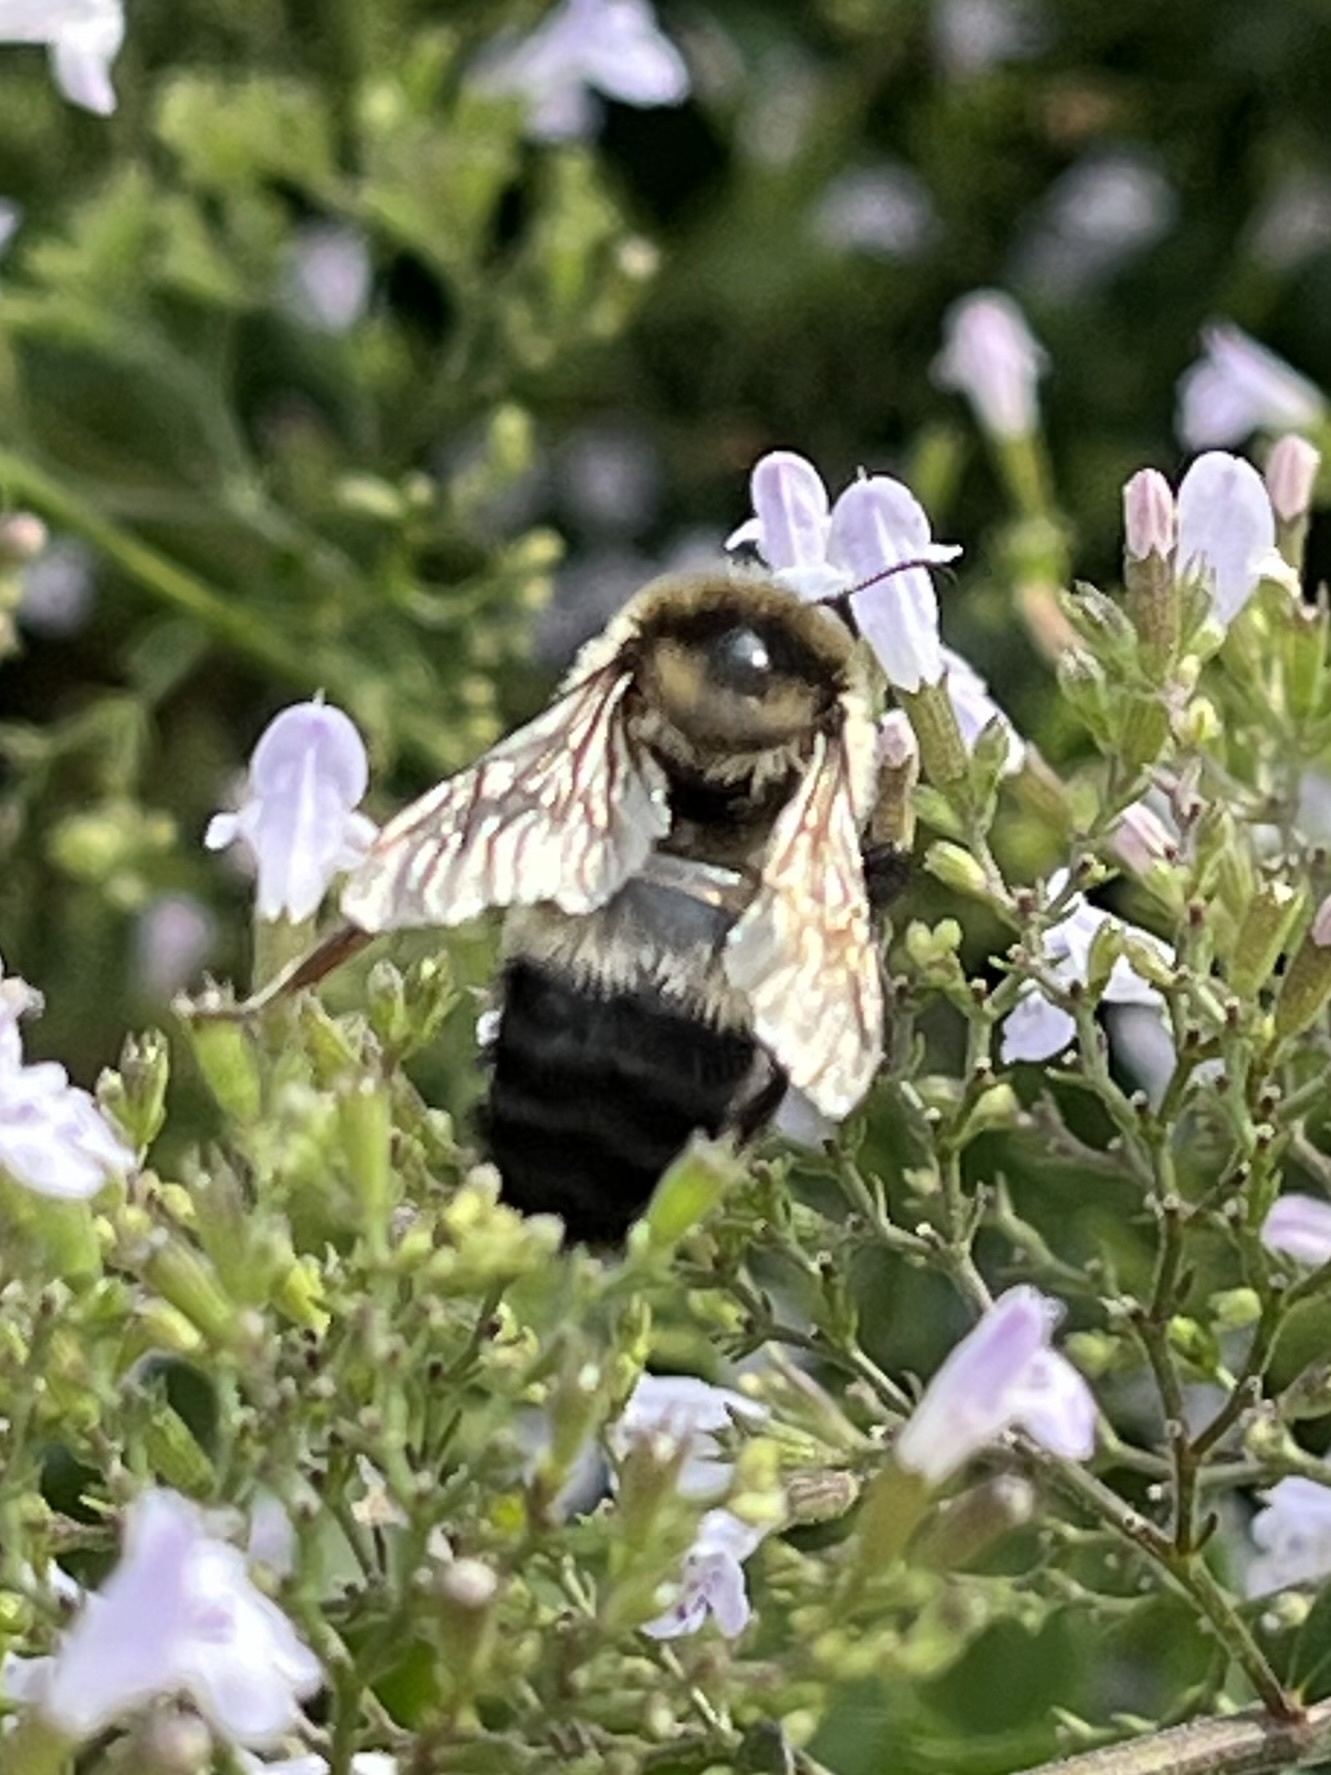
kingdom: Animalia
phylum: Arthropoda
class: Insecta
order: Hymenoptera
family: Apidae
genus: Bombus
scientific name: Bombus rufocinctus
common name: Red-belted bumble bee
